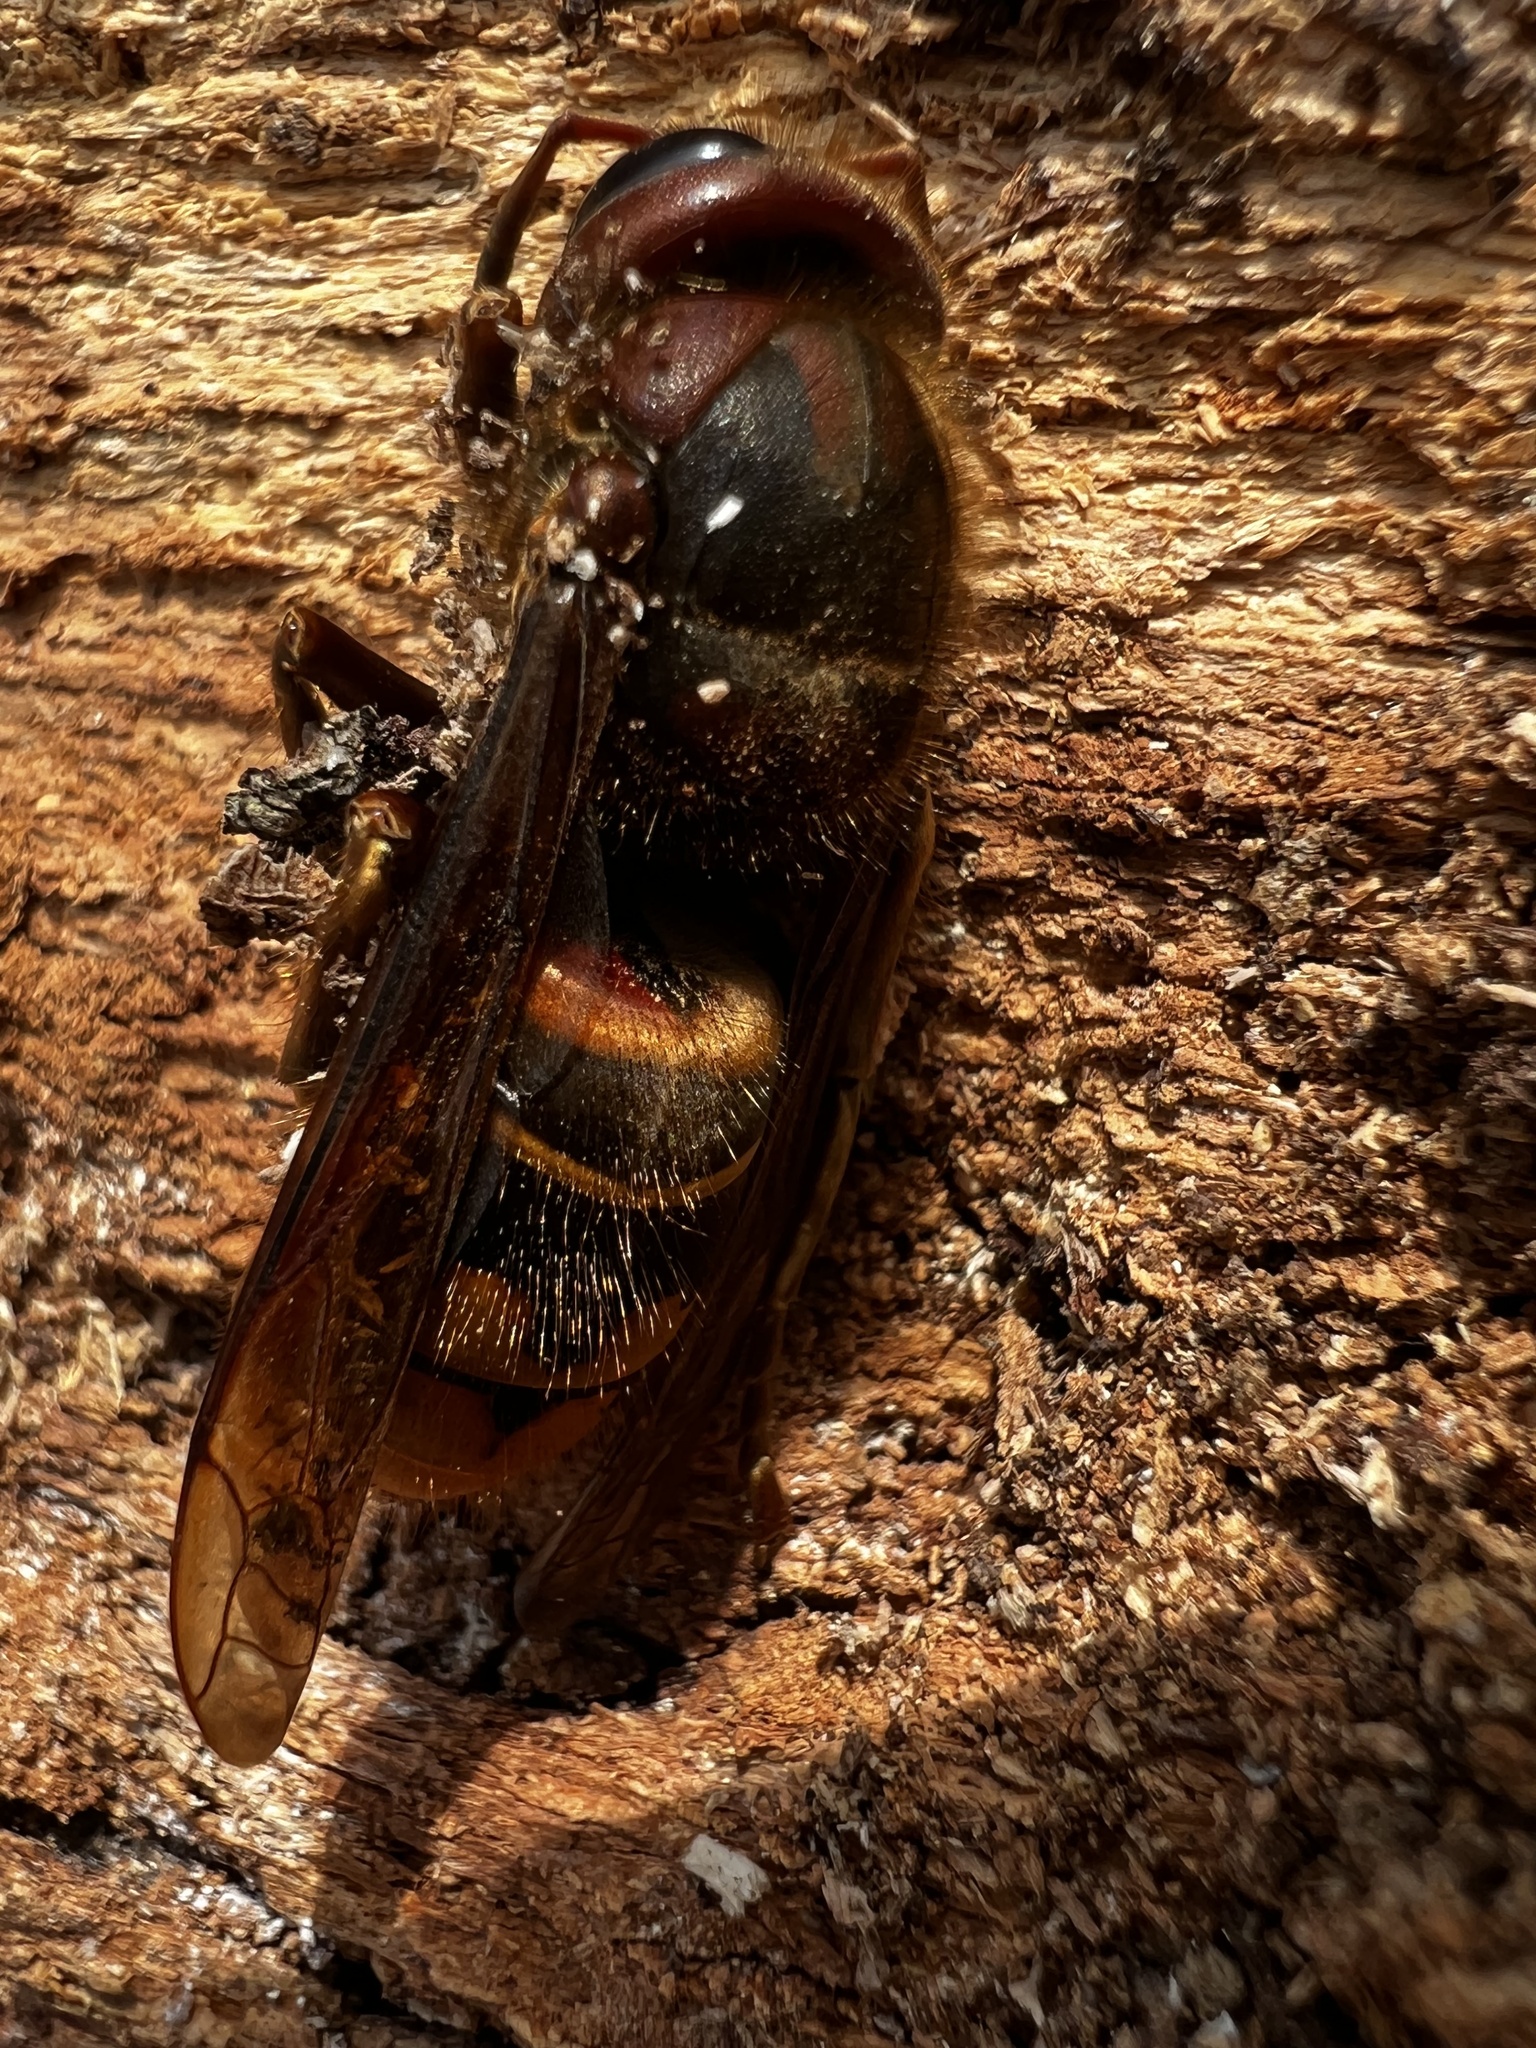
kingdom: Animalia
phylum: Arthropoda
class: Insecta
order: Hymenoptera
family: Vespidae
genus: Vespa
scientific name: Vespa crabro
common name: Hornet
